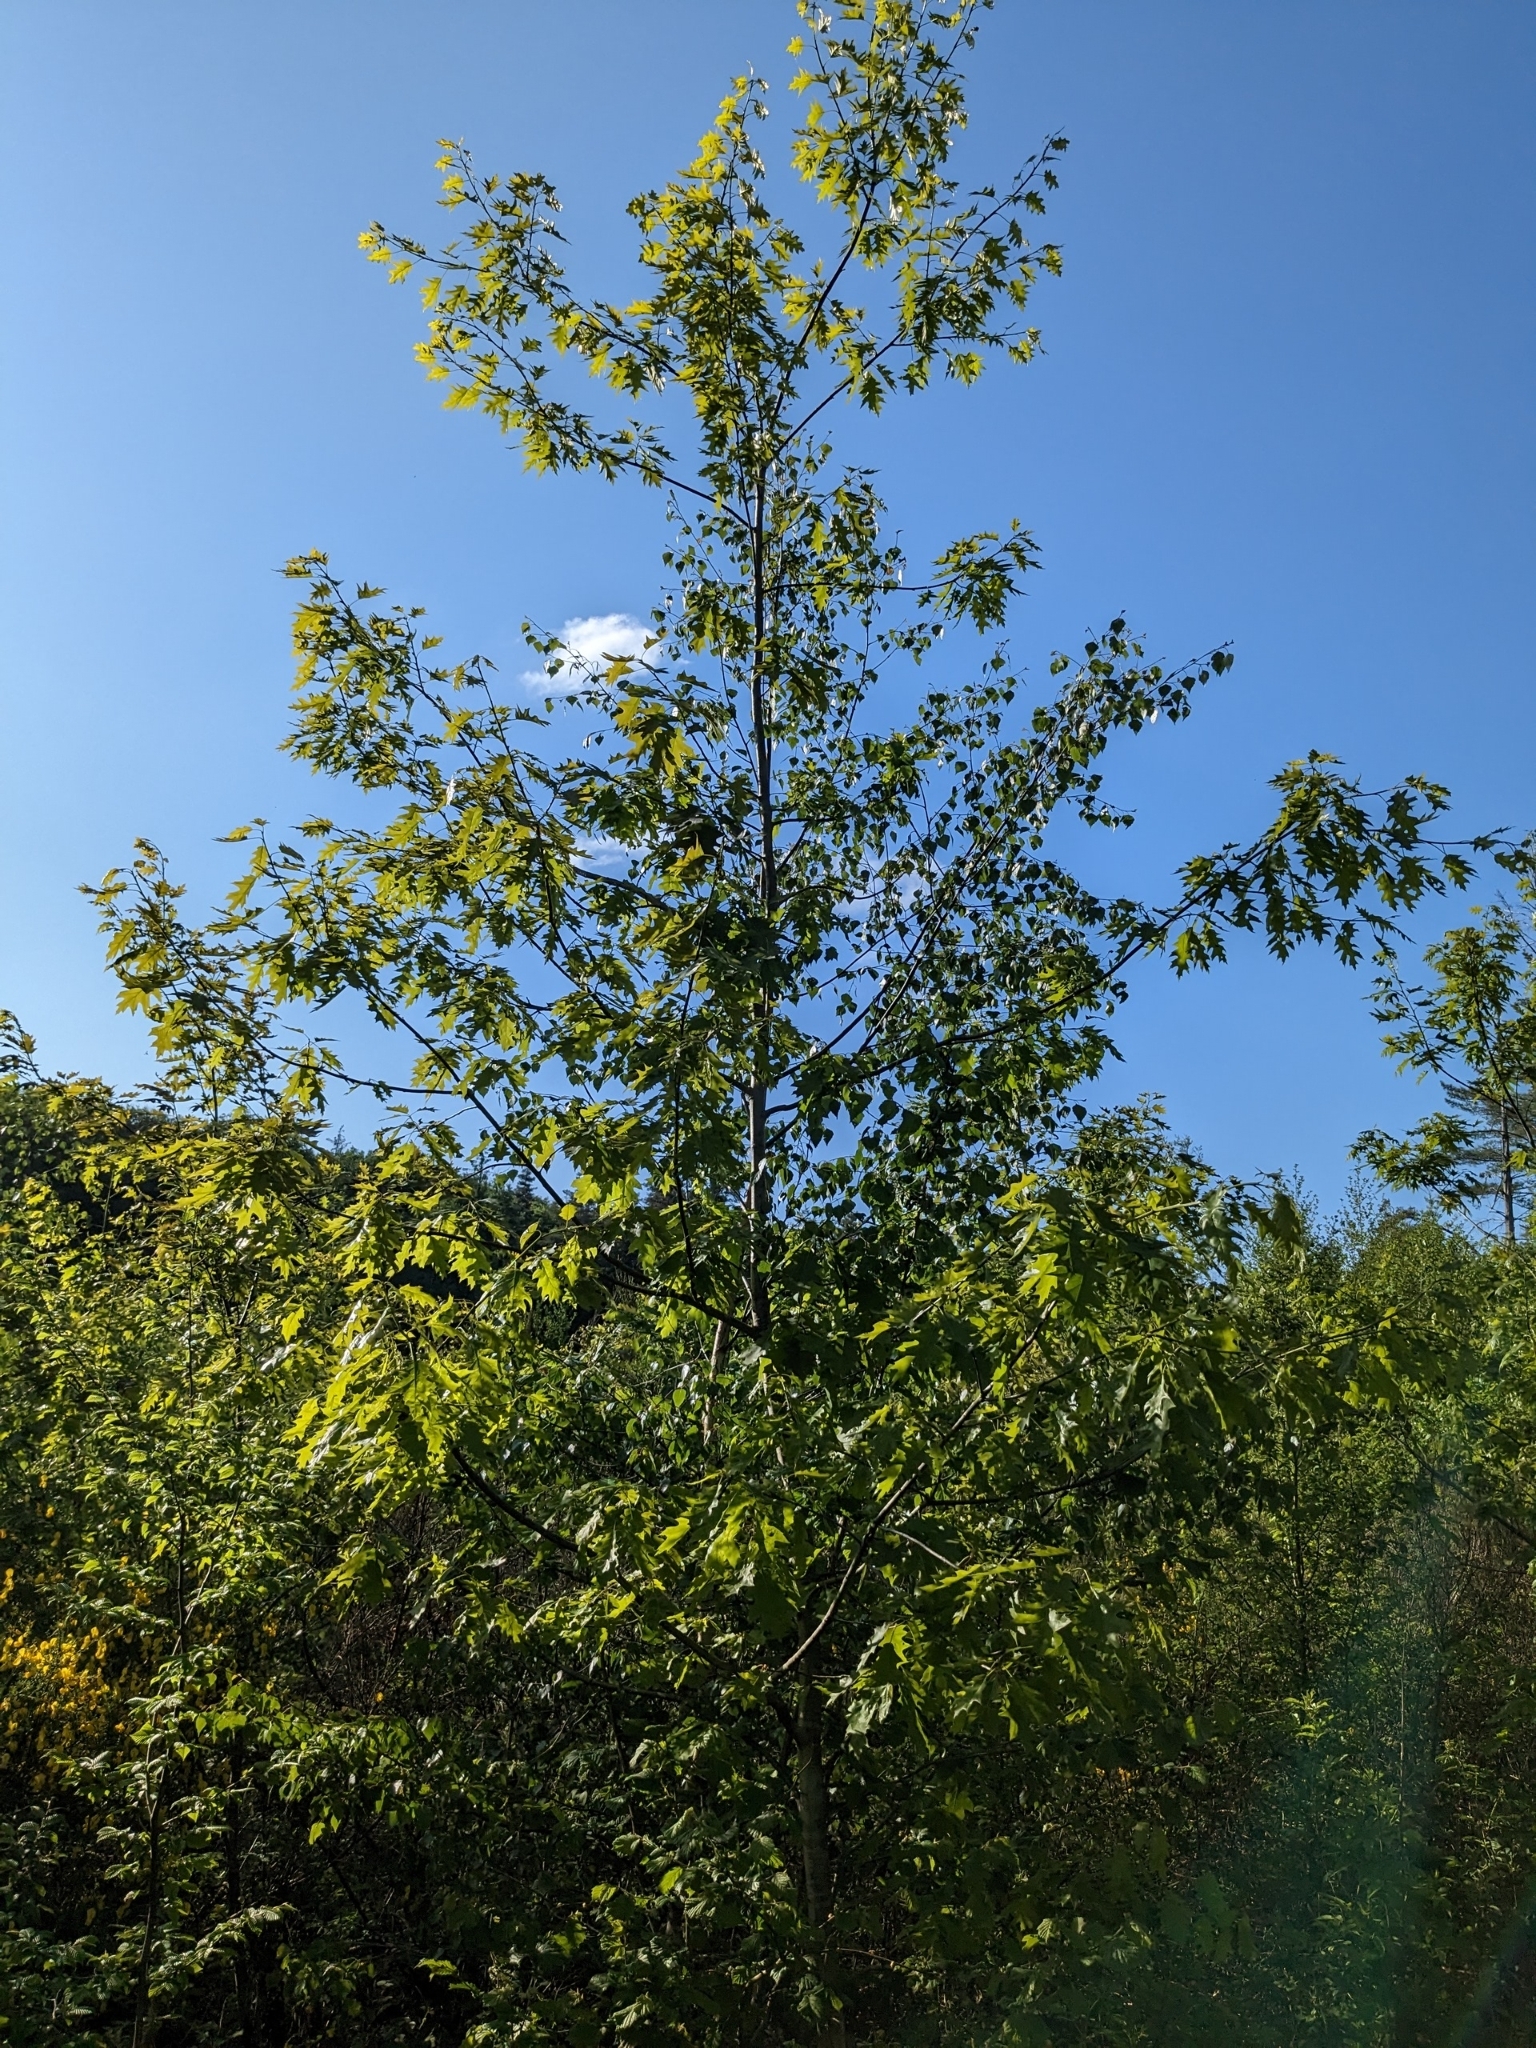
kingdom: Plantae
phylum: Tracheophyta
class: Magnoliopsida
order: Fagales
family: Fagaceae
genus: Quercus
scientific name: Quercus rubra
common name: Red oak
